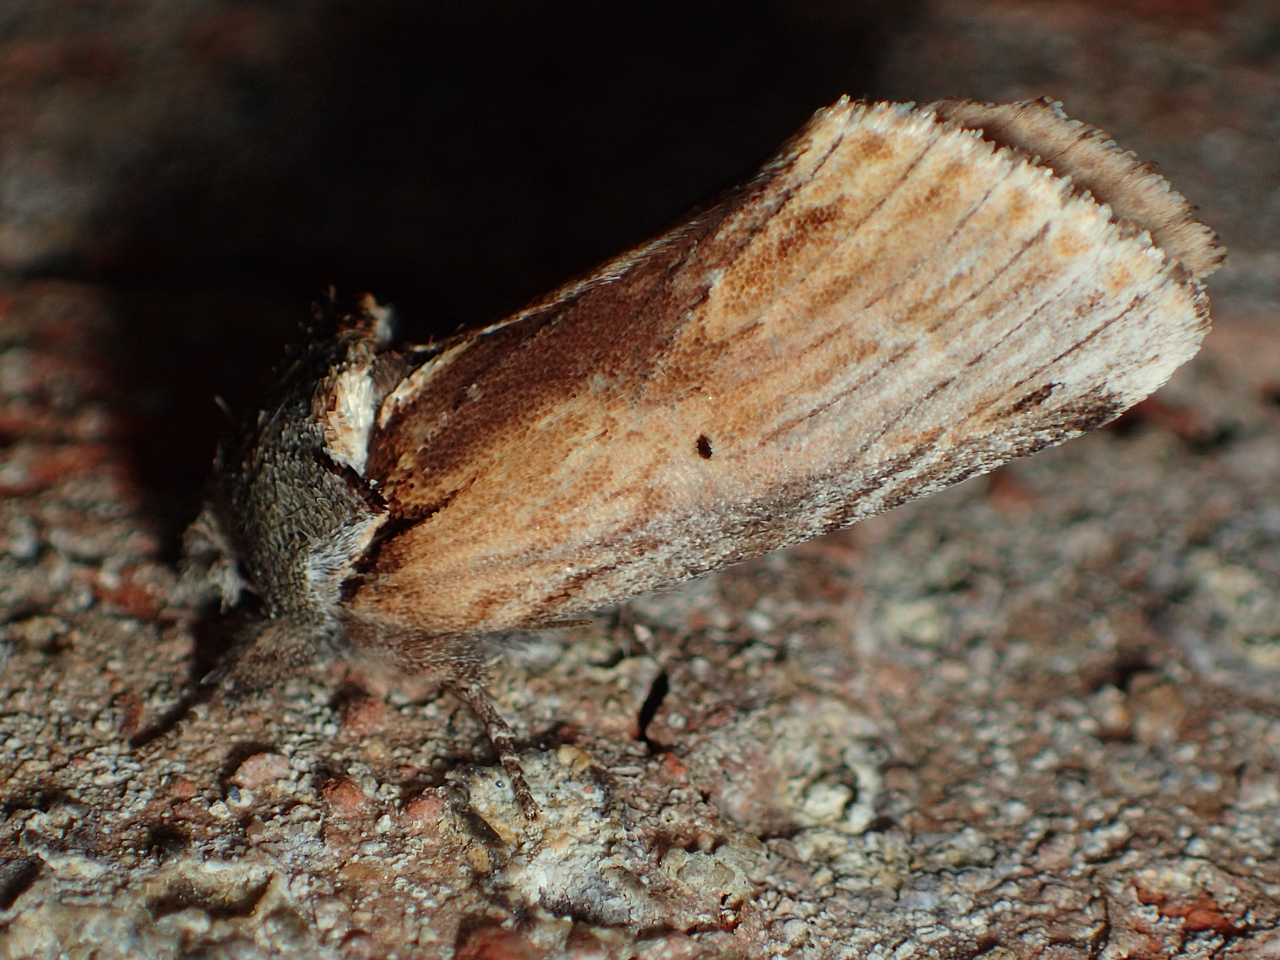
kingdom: Animalia
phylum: Arthropoda
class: Insecta
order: Lepidoptera
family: Notodontidae
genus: Schizura
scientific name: Schizura
